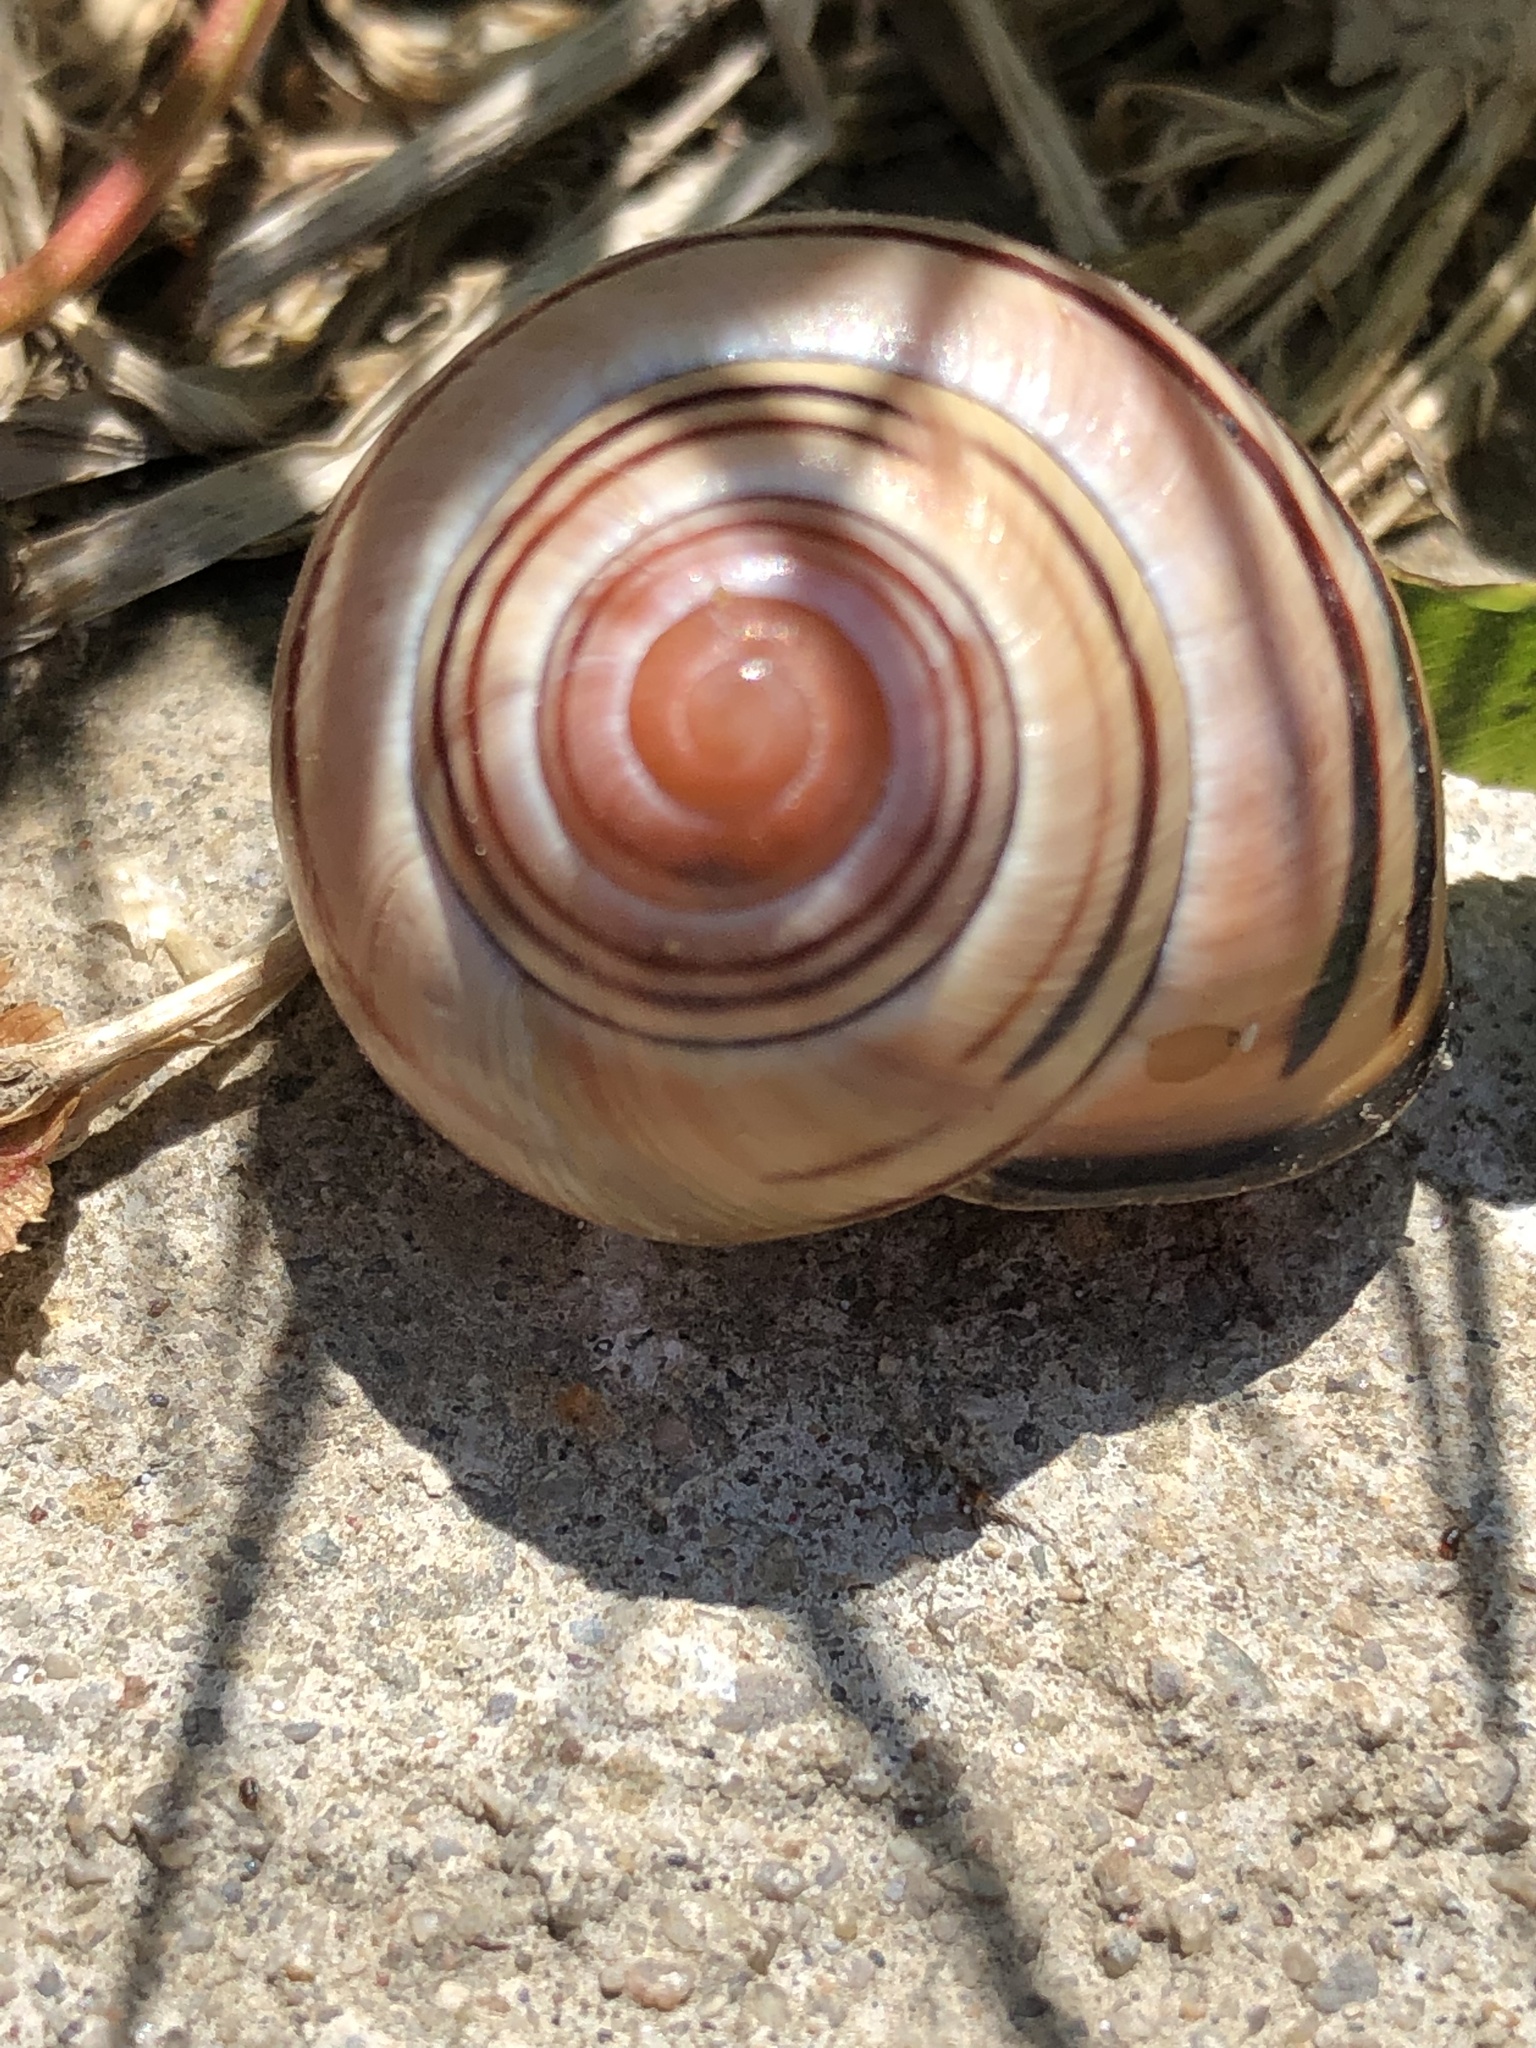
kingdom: Animalia
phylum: Mollusca
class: Gastropoda
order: Stylommatophora
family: Helicidae
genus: Cepaea
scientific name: Cepaea nemoralis
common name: Grovesnail
